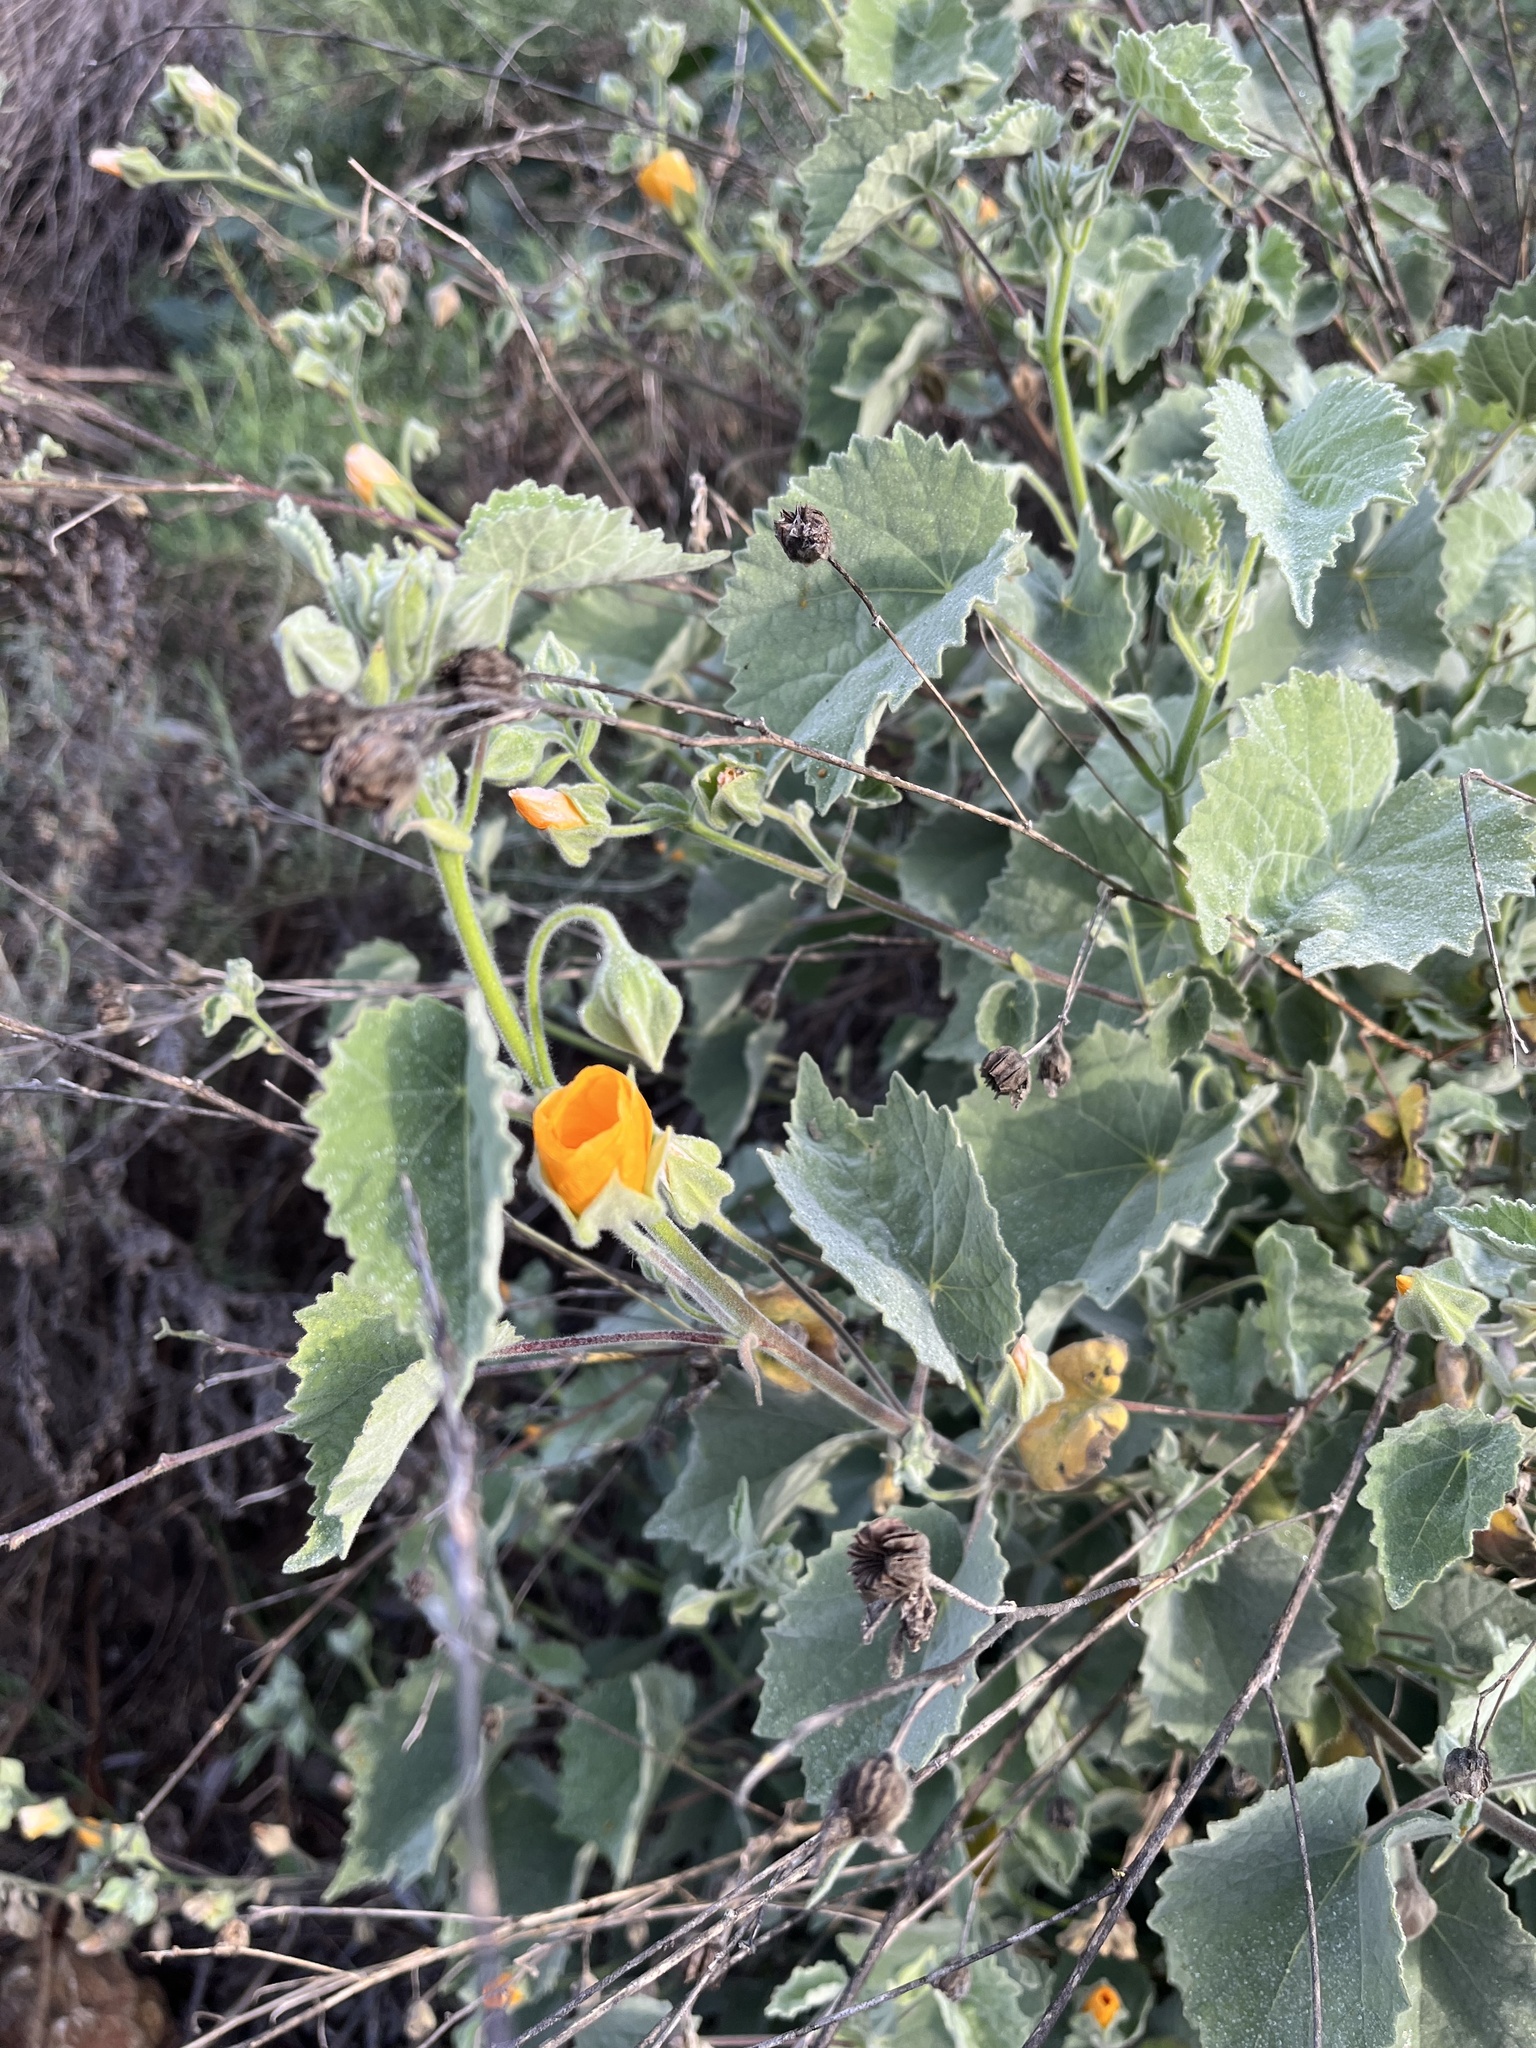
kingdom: Plantae
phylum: Tracheophyta
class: Magnoliopsida
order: Malvales
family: Malvaceae
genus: Abutilon
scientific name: Abutilon palmeri
